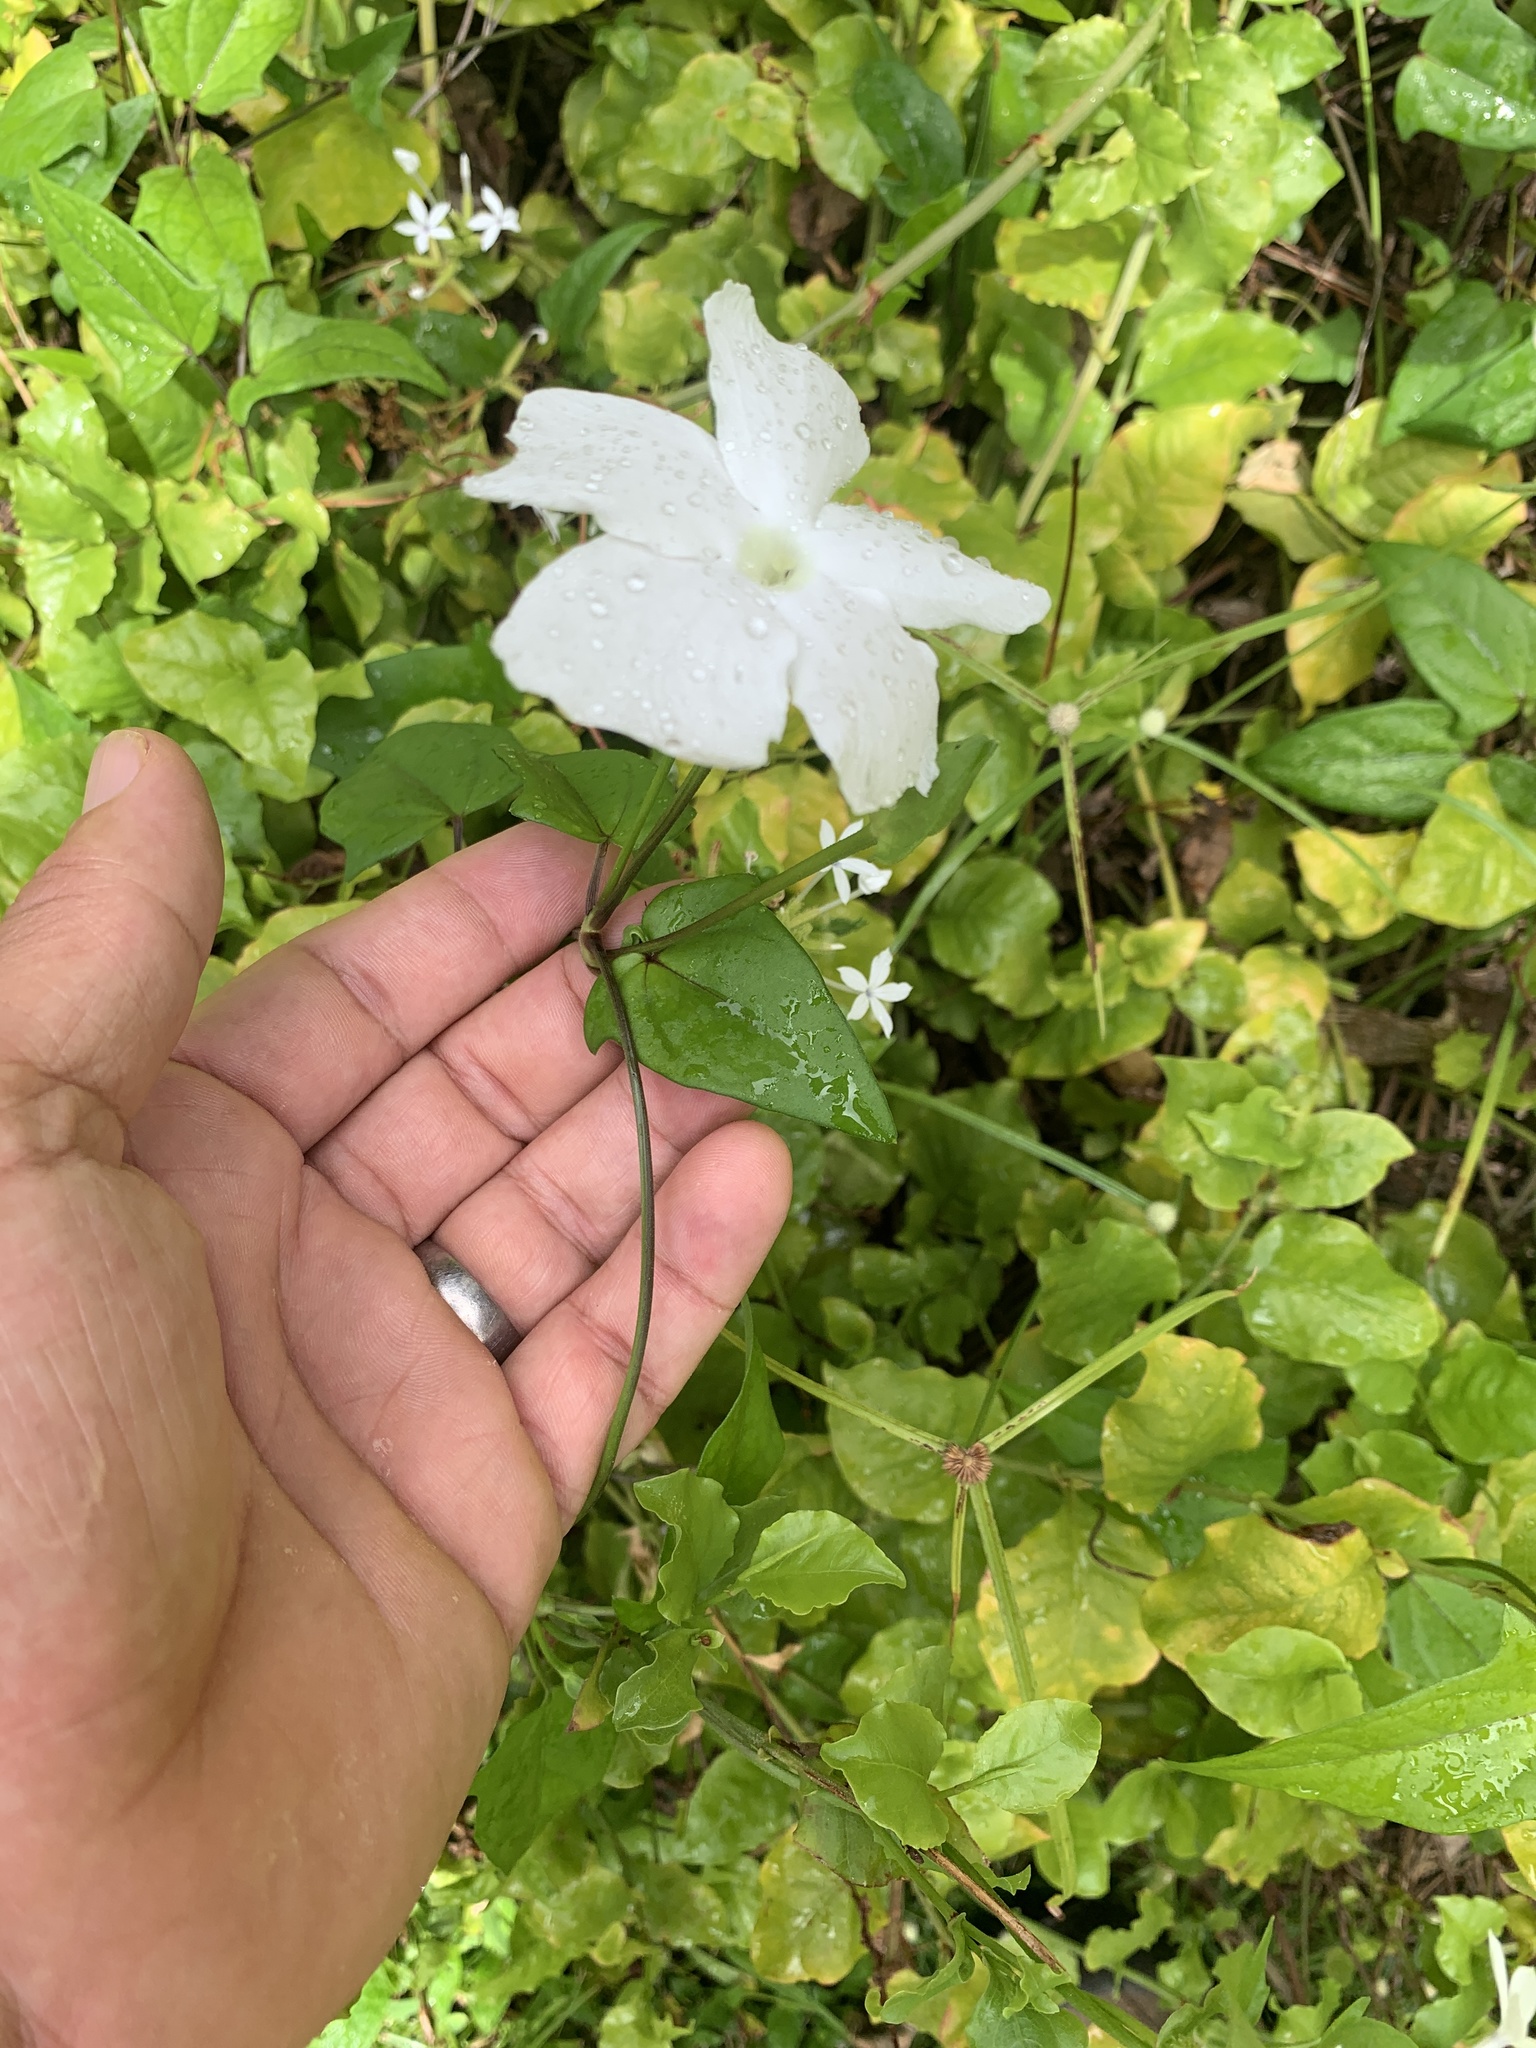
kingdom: Plantae
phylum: Tracheophyta
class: Magnoliopsida
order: Lamiales
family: Acanthaceae
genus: Thunbergia
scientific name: Thunbergia fragrans
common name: Whitelady
